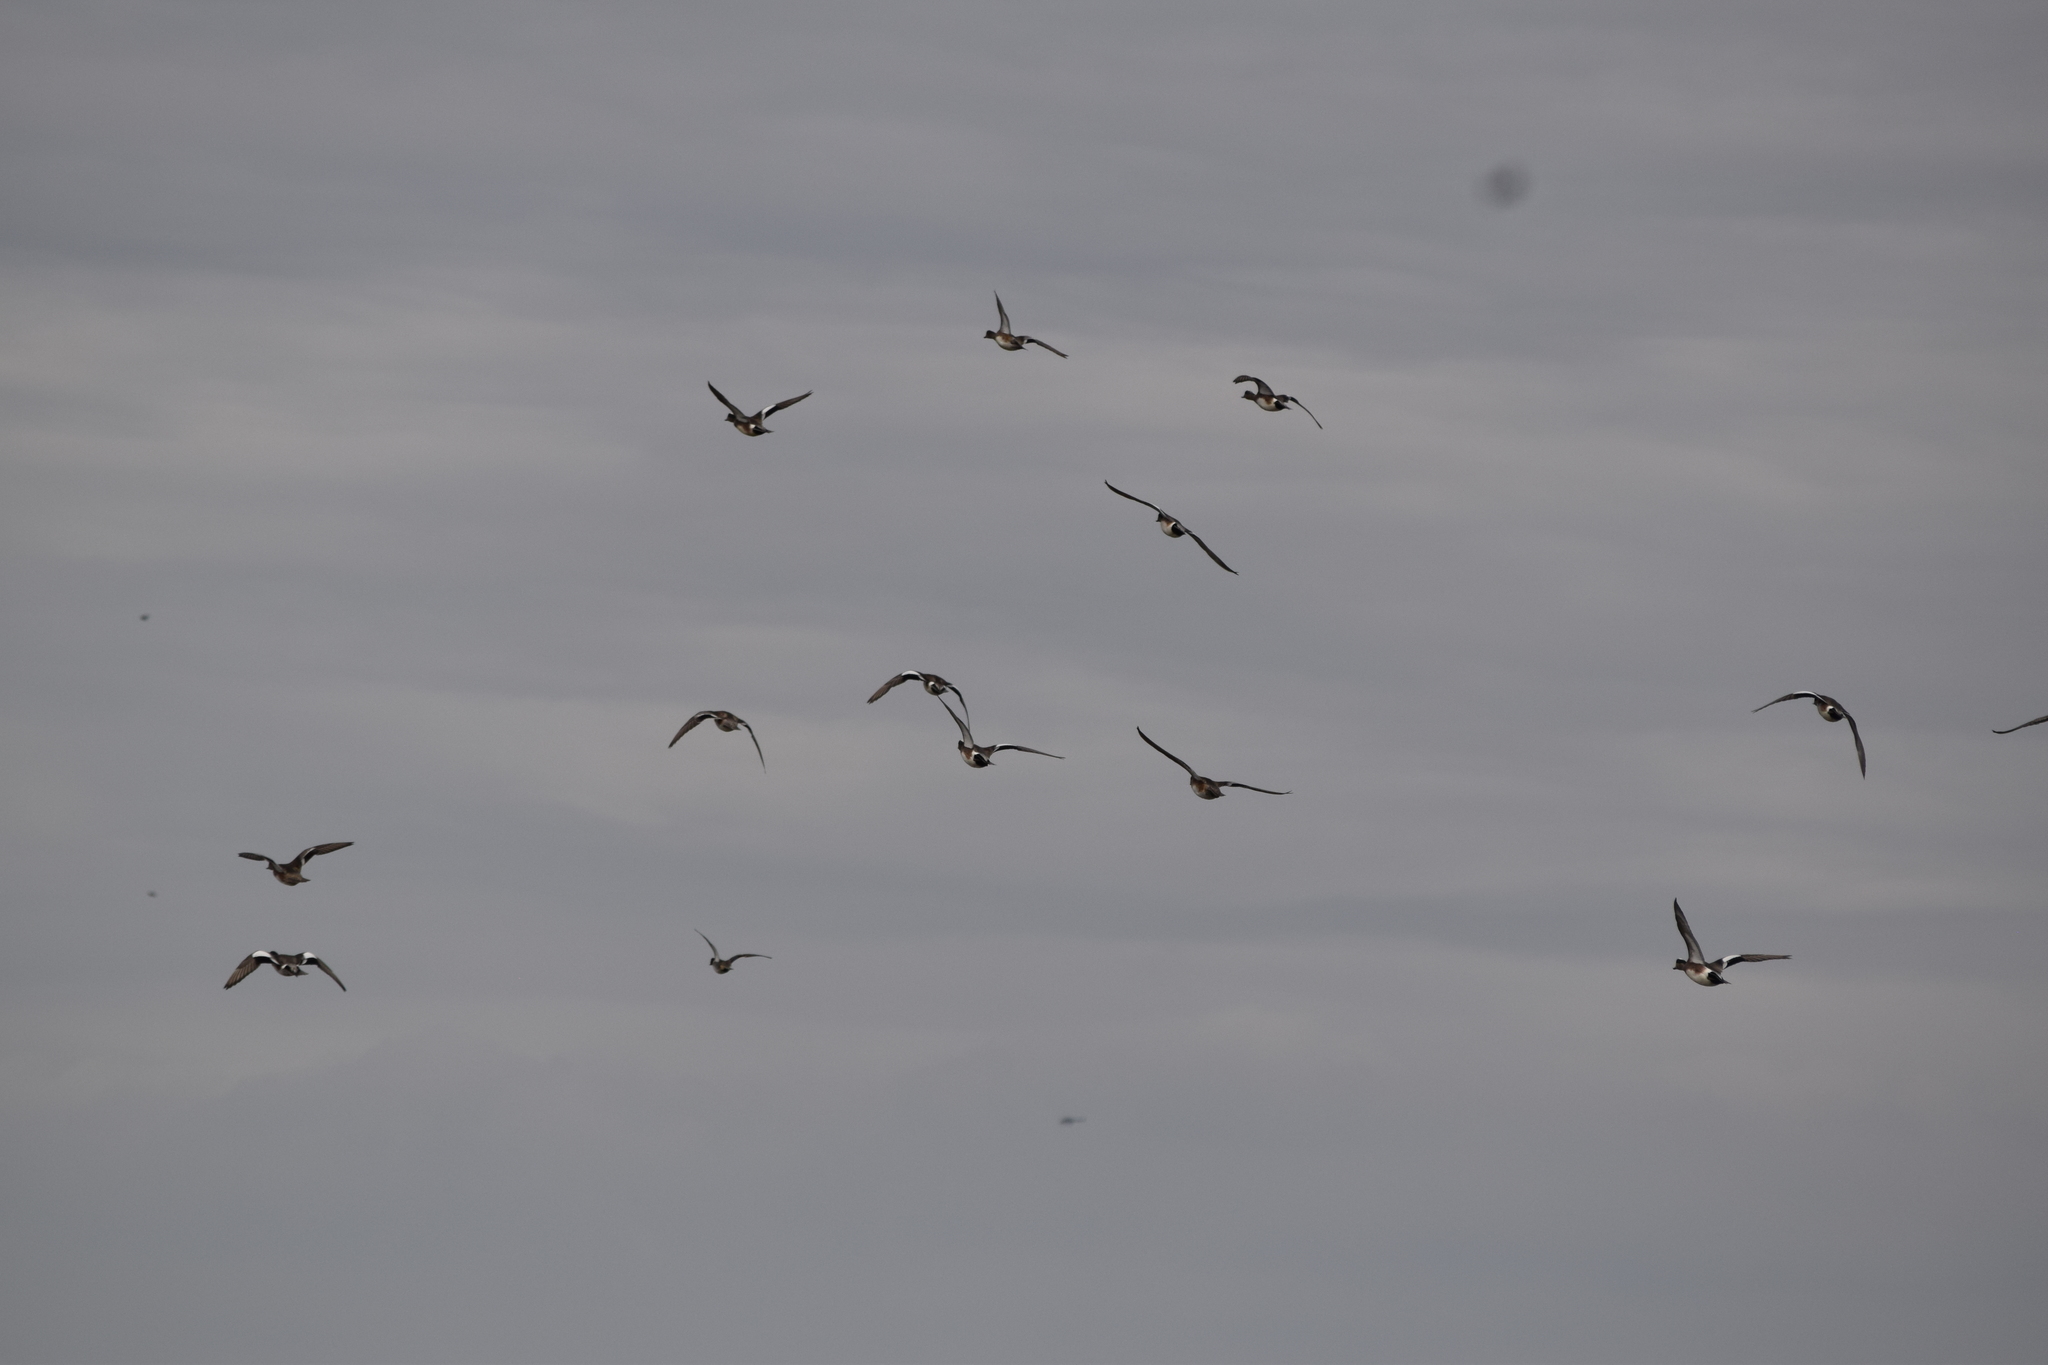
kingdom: Animalia
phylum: Chordata
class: Aves
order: Anseriformes
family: Anatidae
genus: Mareca
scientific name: Mareca americana
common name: American wigeon
